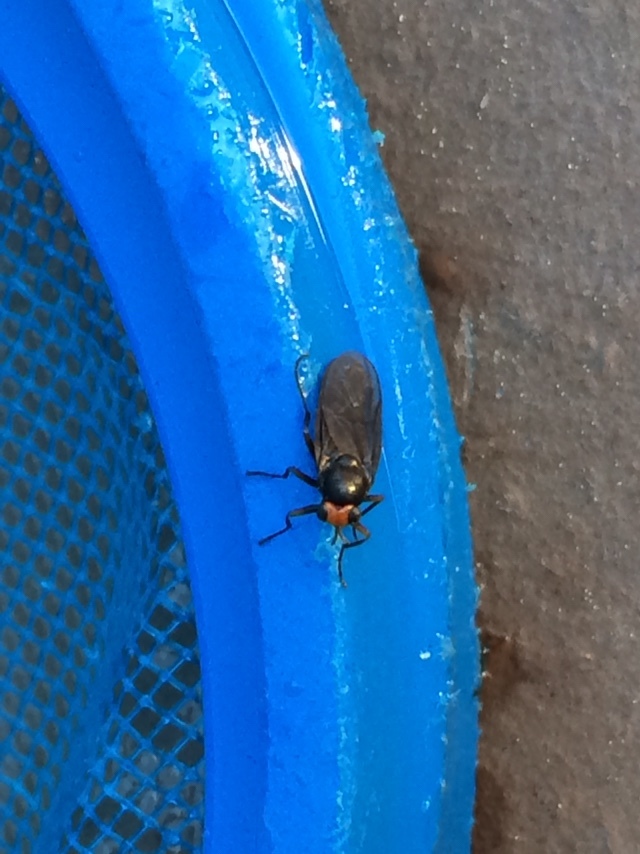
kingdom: Animalia
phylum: Arthropoda
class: Insecta
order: Diptera
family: Stratiomyidae
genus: Inopus
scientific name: Inopus rubriceps
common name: Soldier fly
